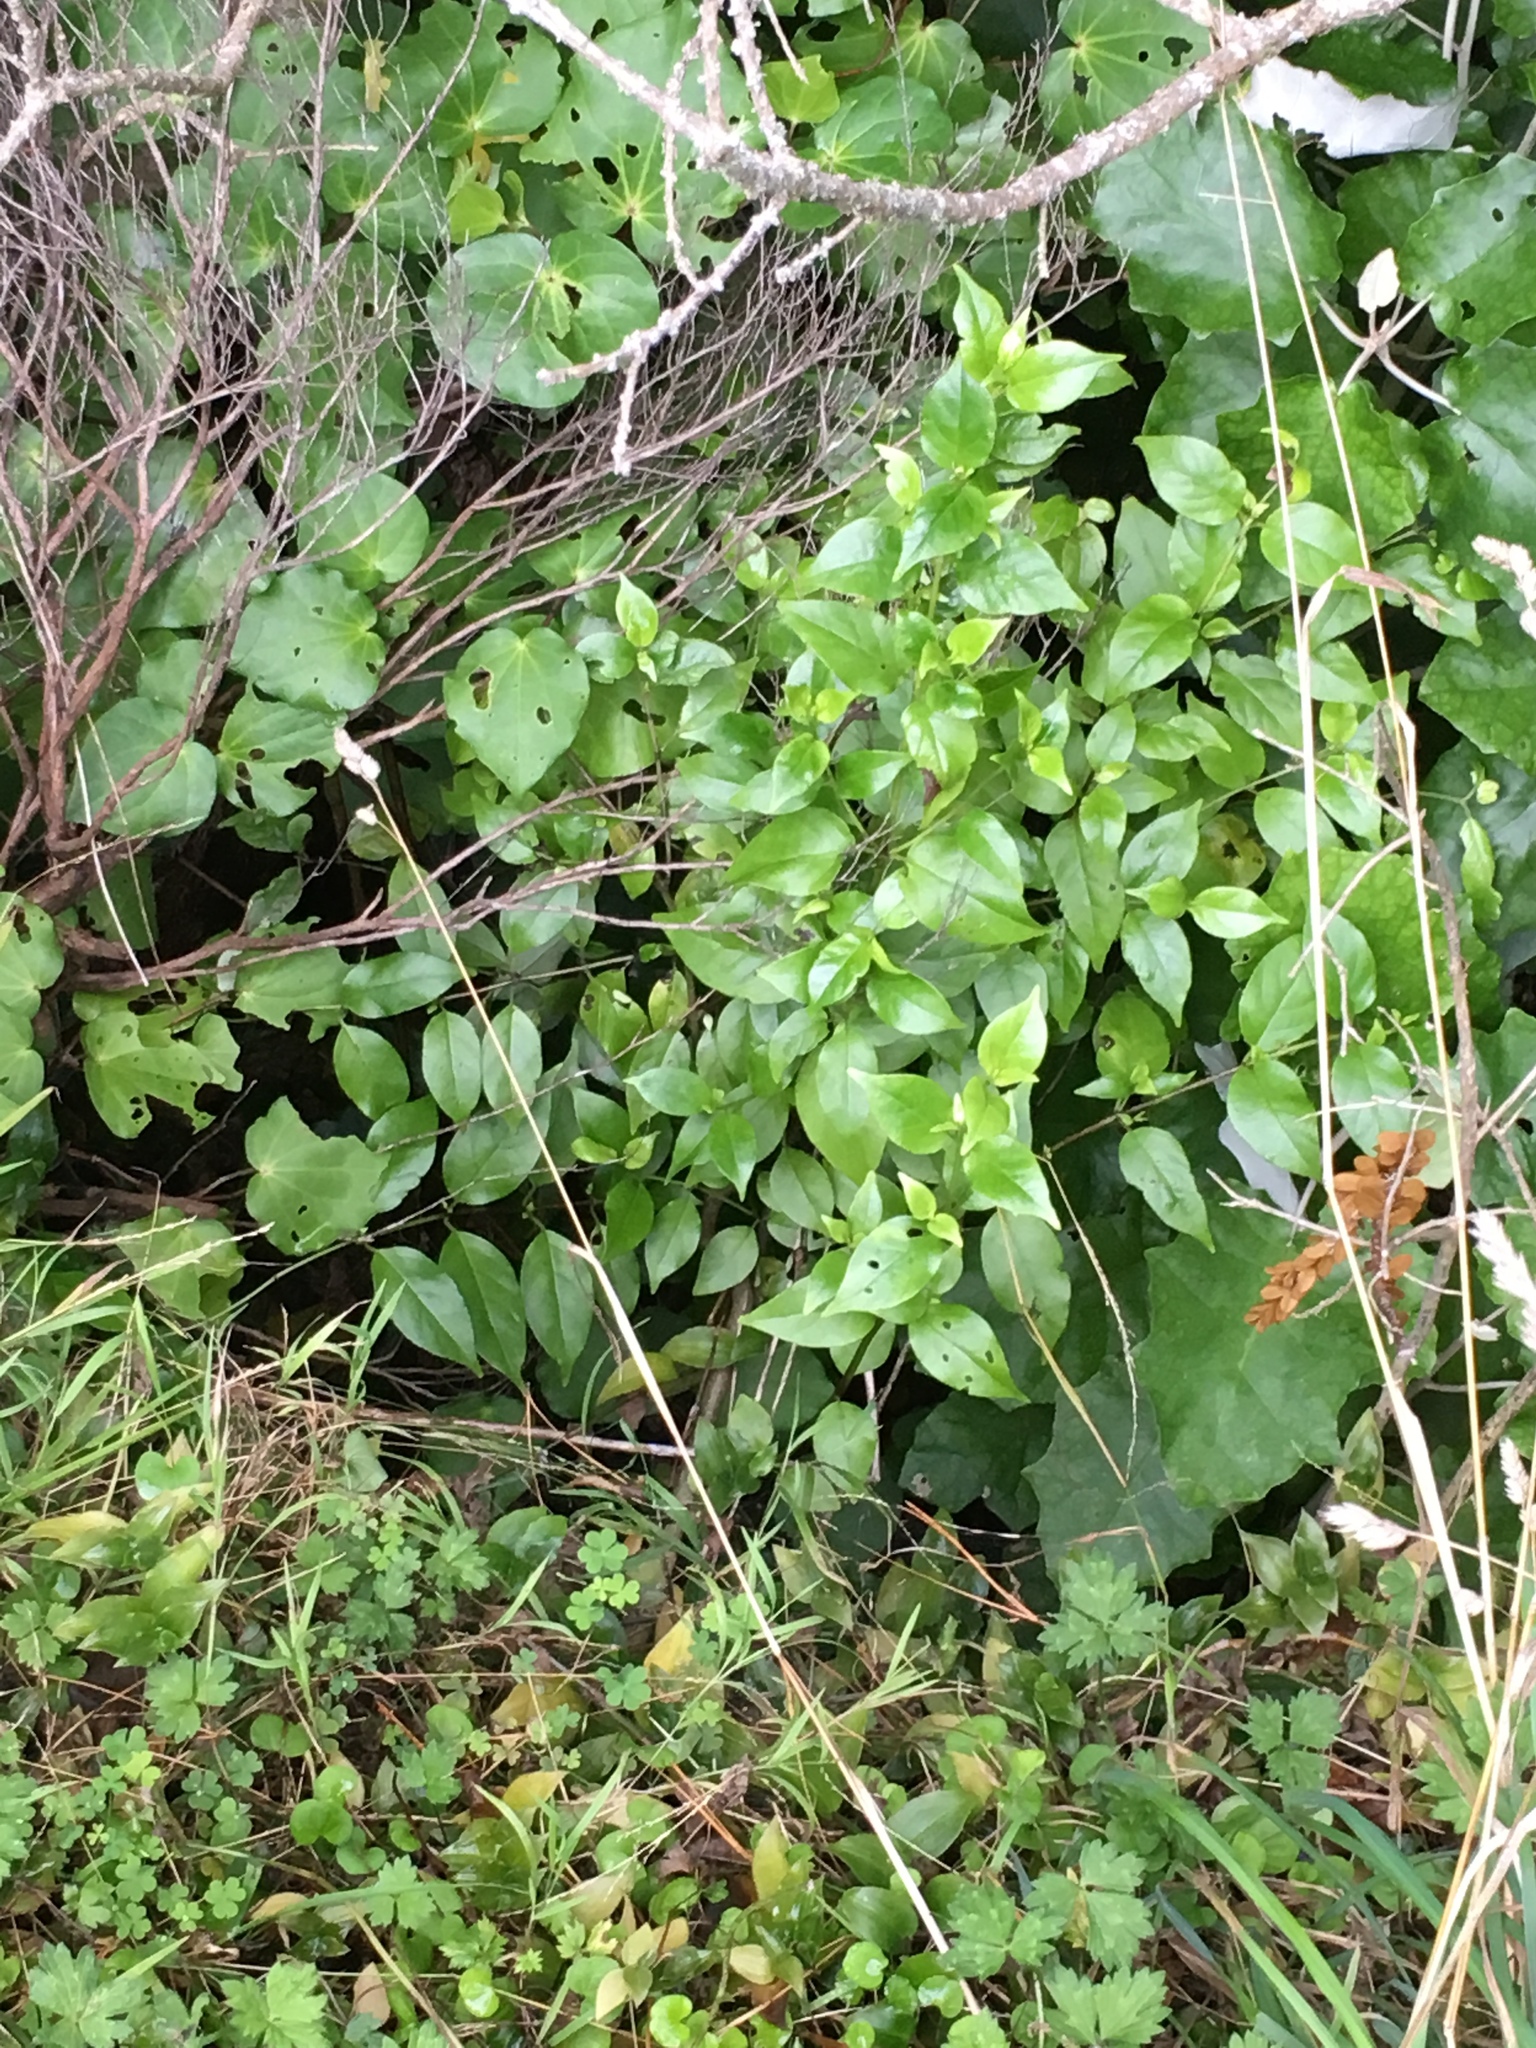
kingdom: Plantae
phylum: Tracheophyta
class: Magnoliopsida
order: Gentianales
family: Loganiaceae
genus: Geniostoma
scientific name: Geniostoma ligustrifolium
